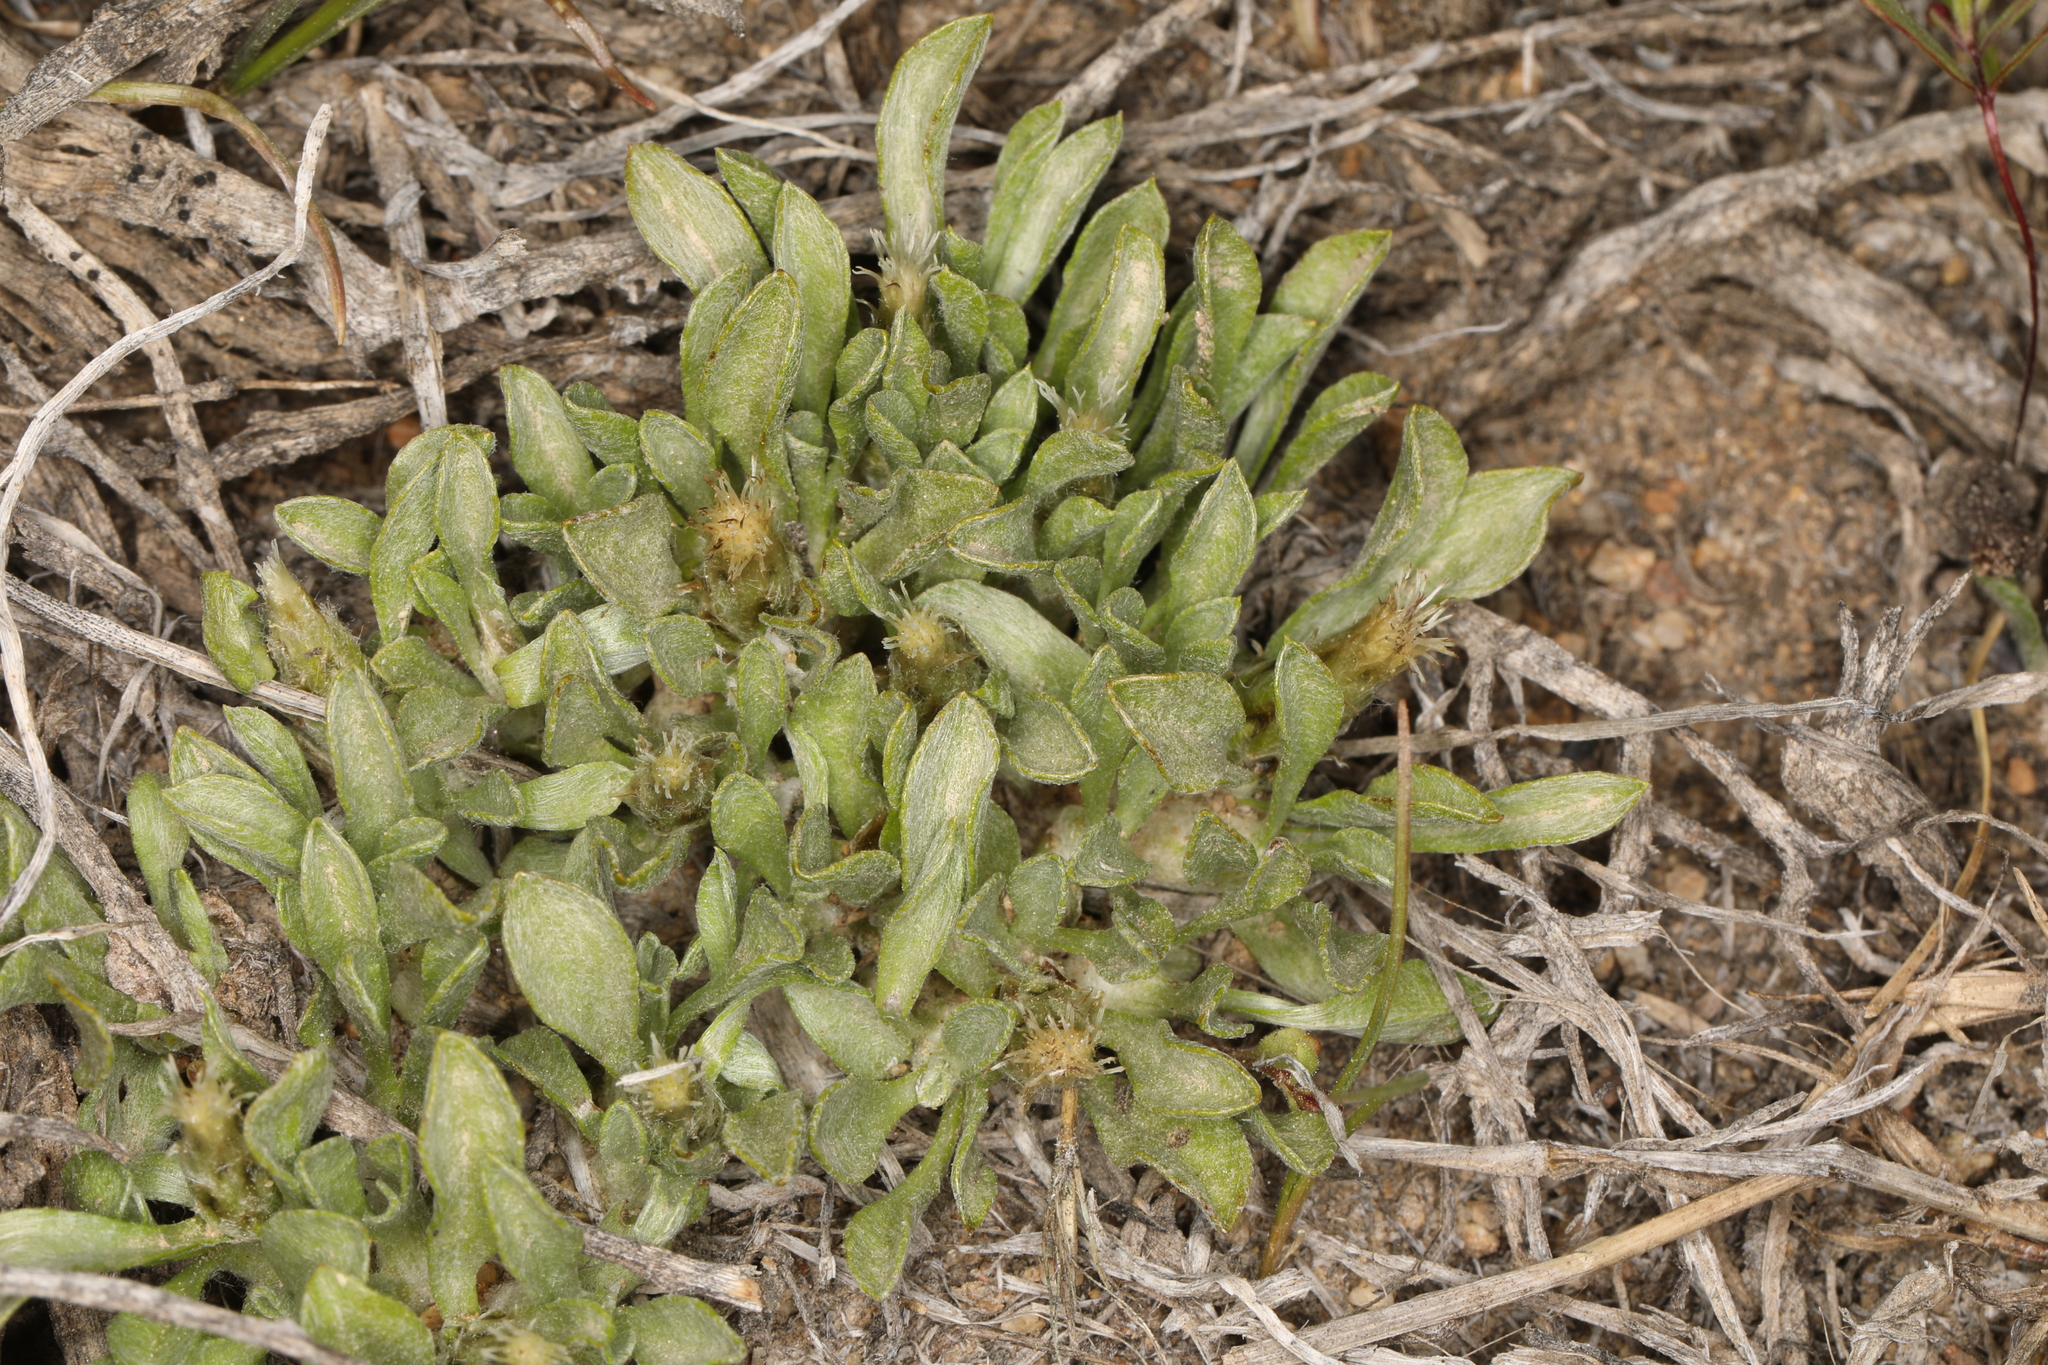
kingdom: Plantae
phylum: Tracheophyta
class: Magnoliopsida
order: Asterales
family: Asteraceae
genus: Antennaria
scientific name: Antennaria dimorpha
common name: Cushion pussytoes
